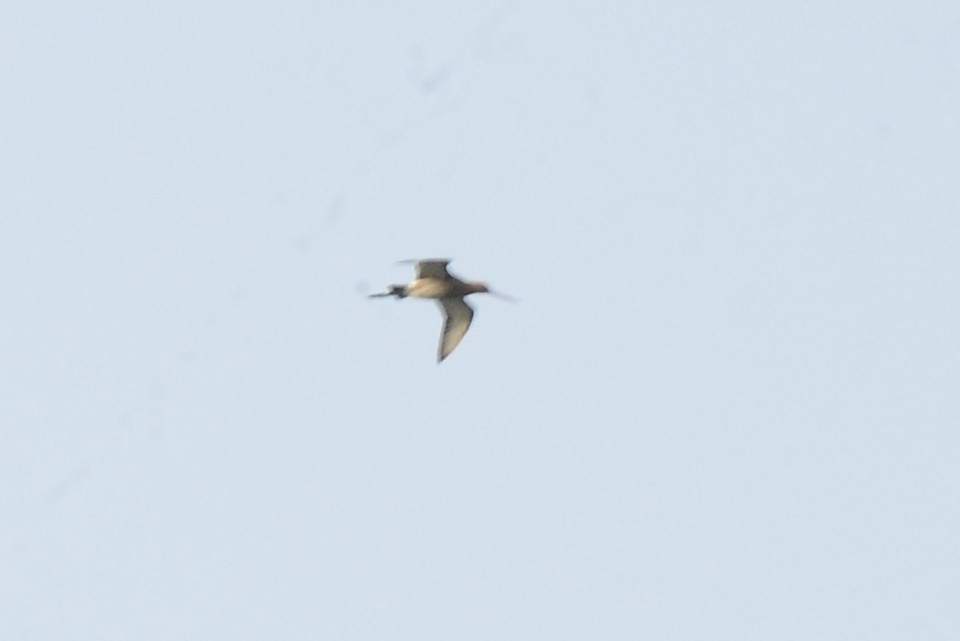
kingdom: Animalia
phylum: Chordata
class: Aves
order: Charadriiformes
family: Scolopacidae
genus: Limosa
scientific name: Limosa limosa
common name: Black-tailed godwit
